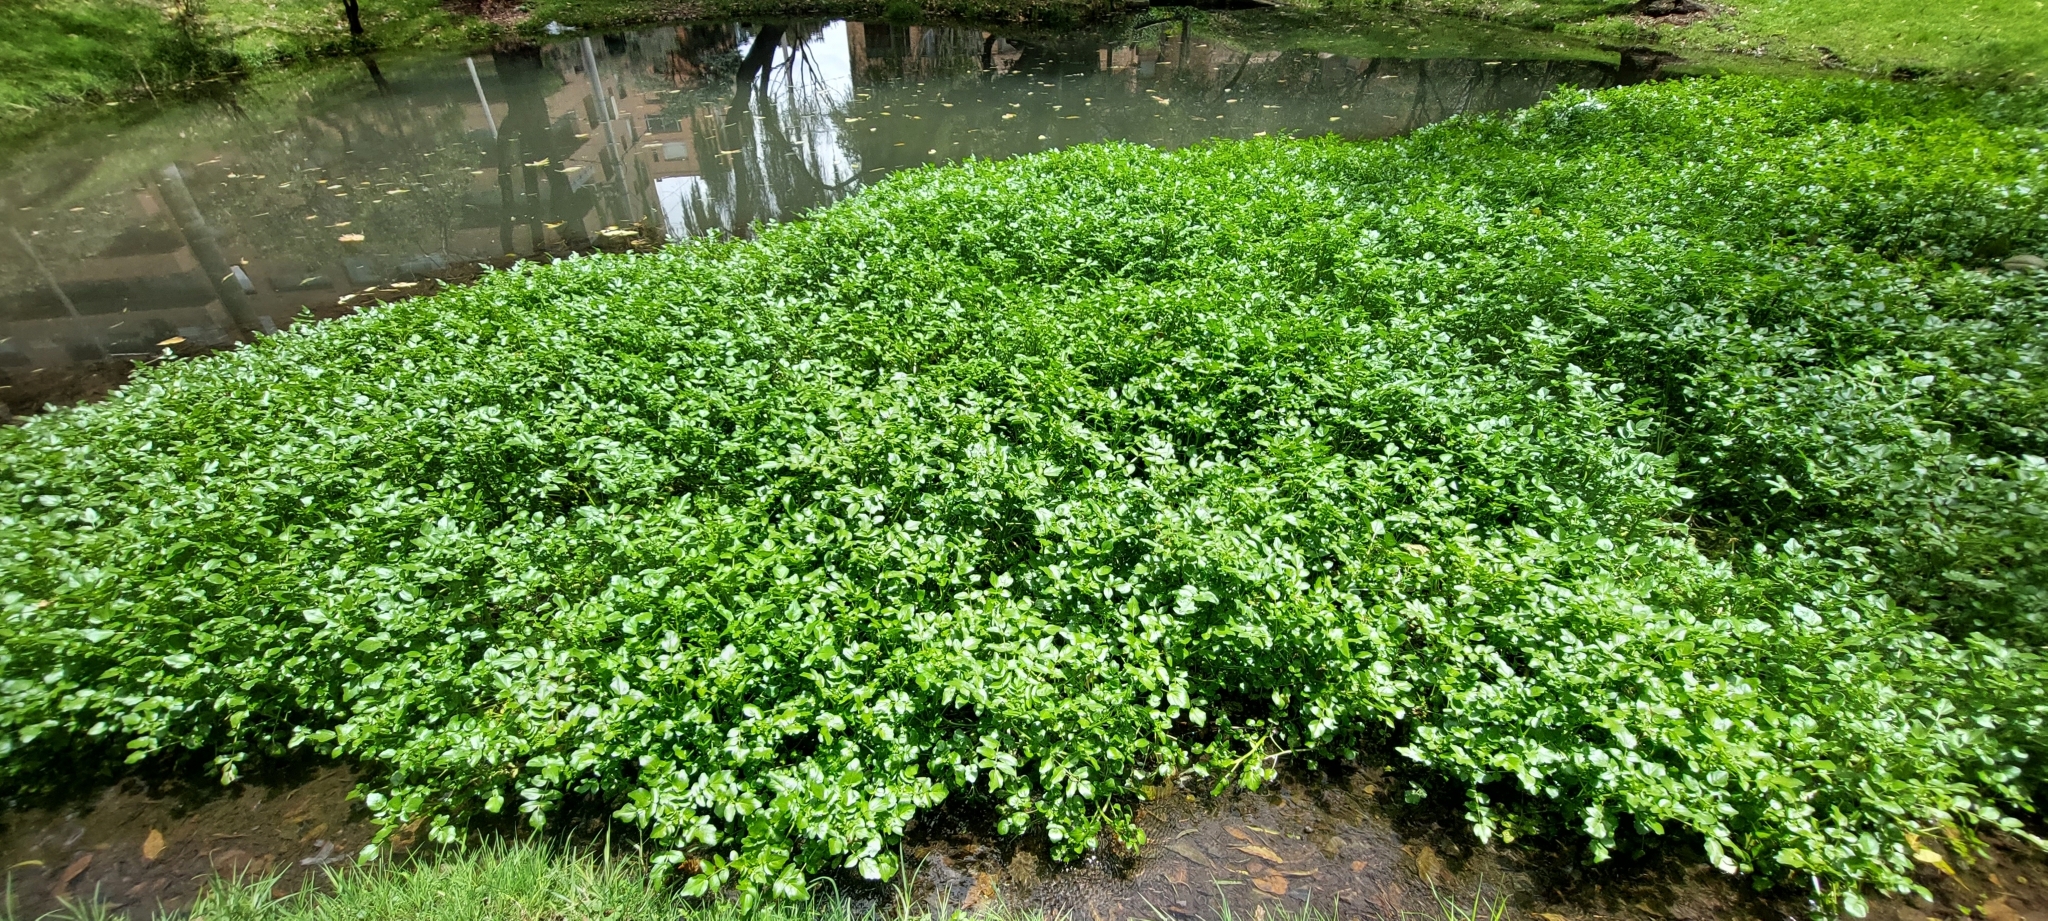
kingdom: Plantae
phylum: Tracheophyta
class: Magnoliopsida
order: Brassicales
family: Brassicaceae
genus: Nasturtium
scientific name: Nasturtium officinale
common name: Watercress
